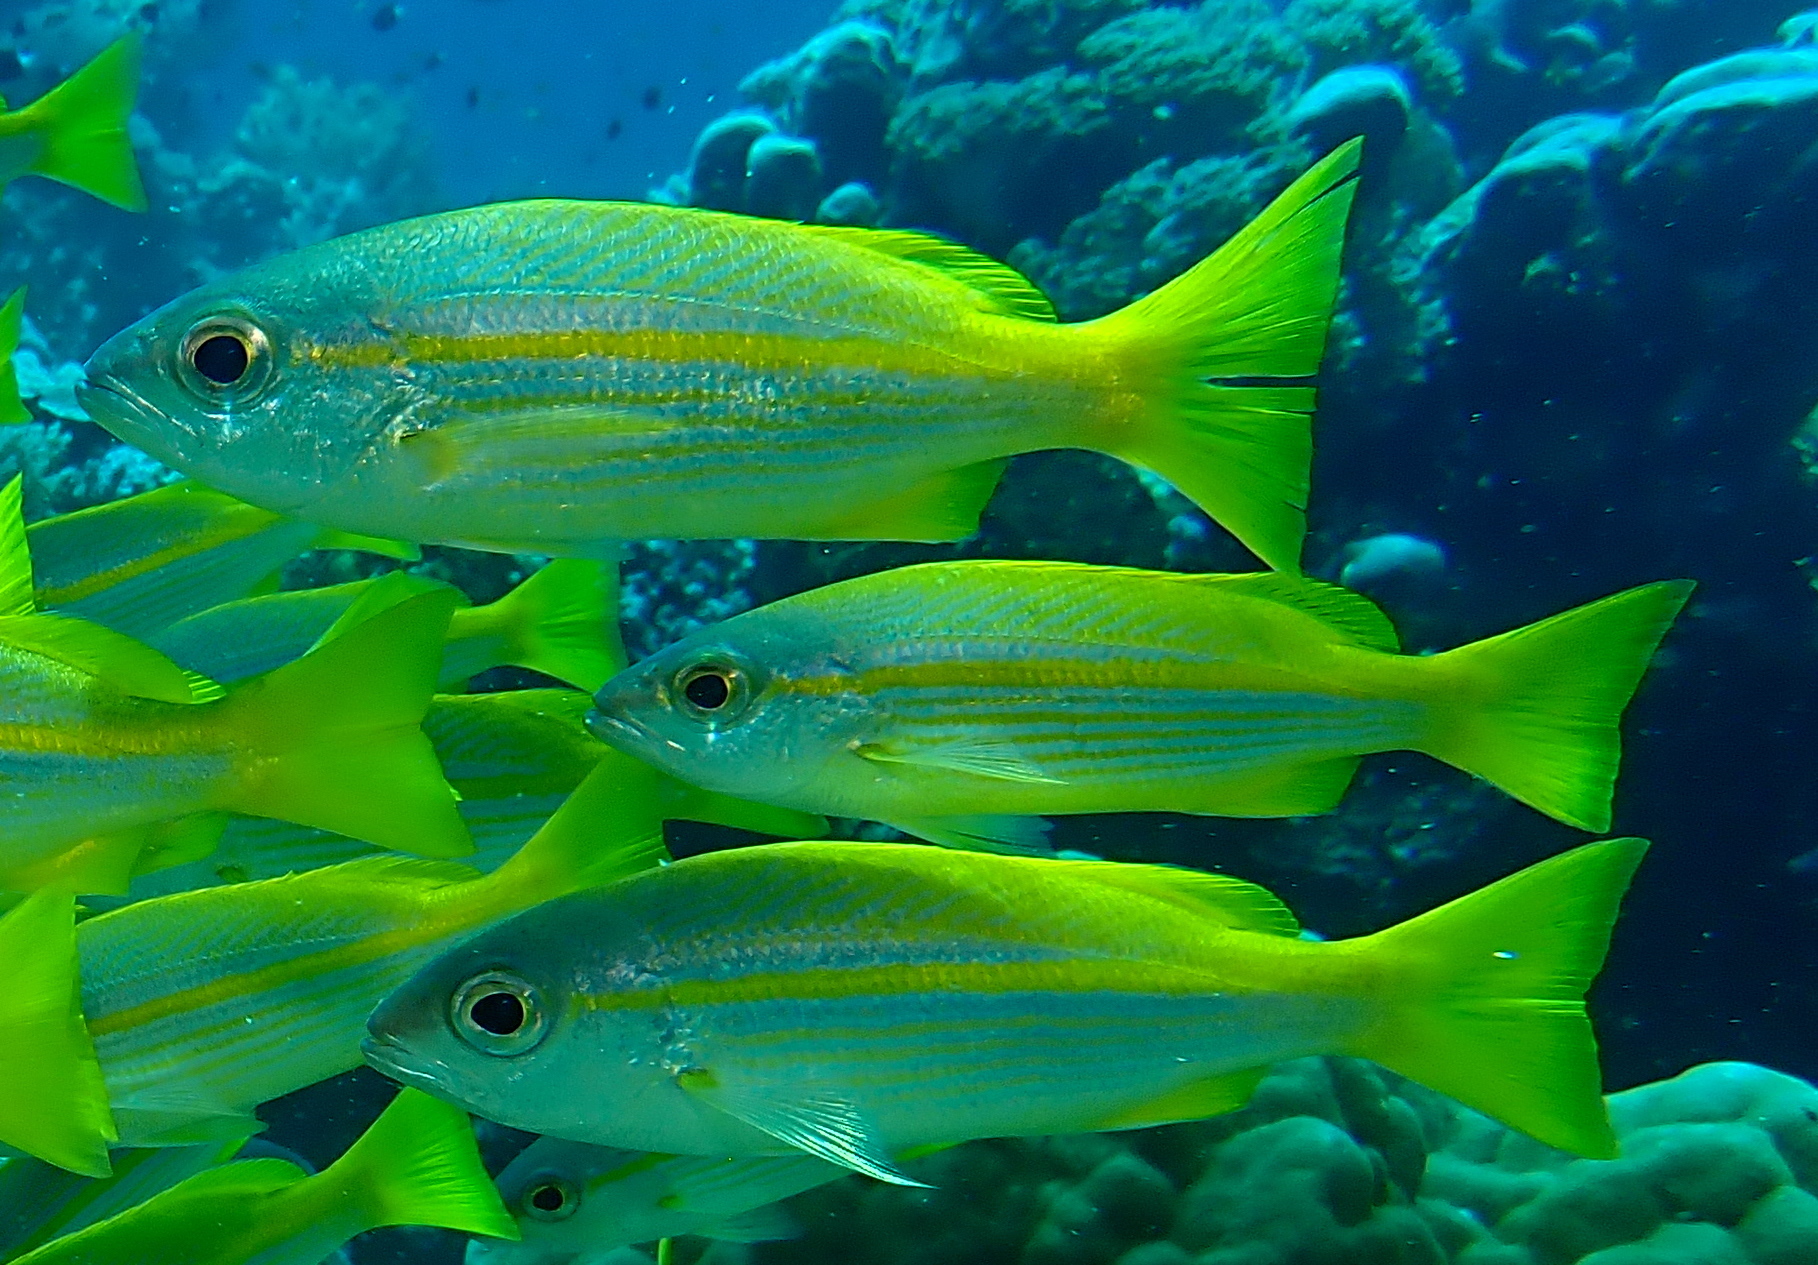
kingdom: Animalia
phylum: Chordata
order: Perciformes
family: Lutjanidae
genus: Lutjanus
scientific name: Lutjanus lutjanus
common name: Bigeye snapper
